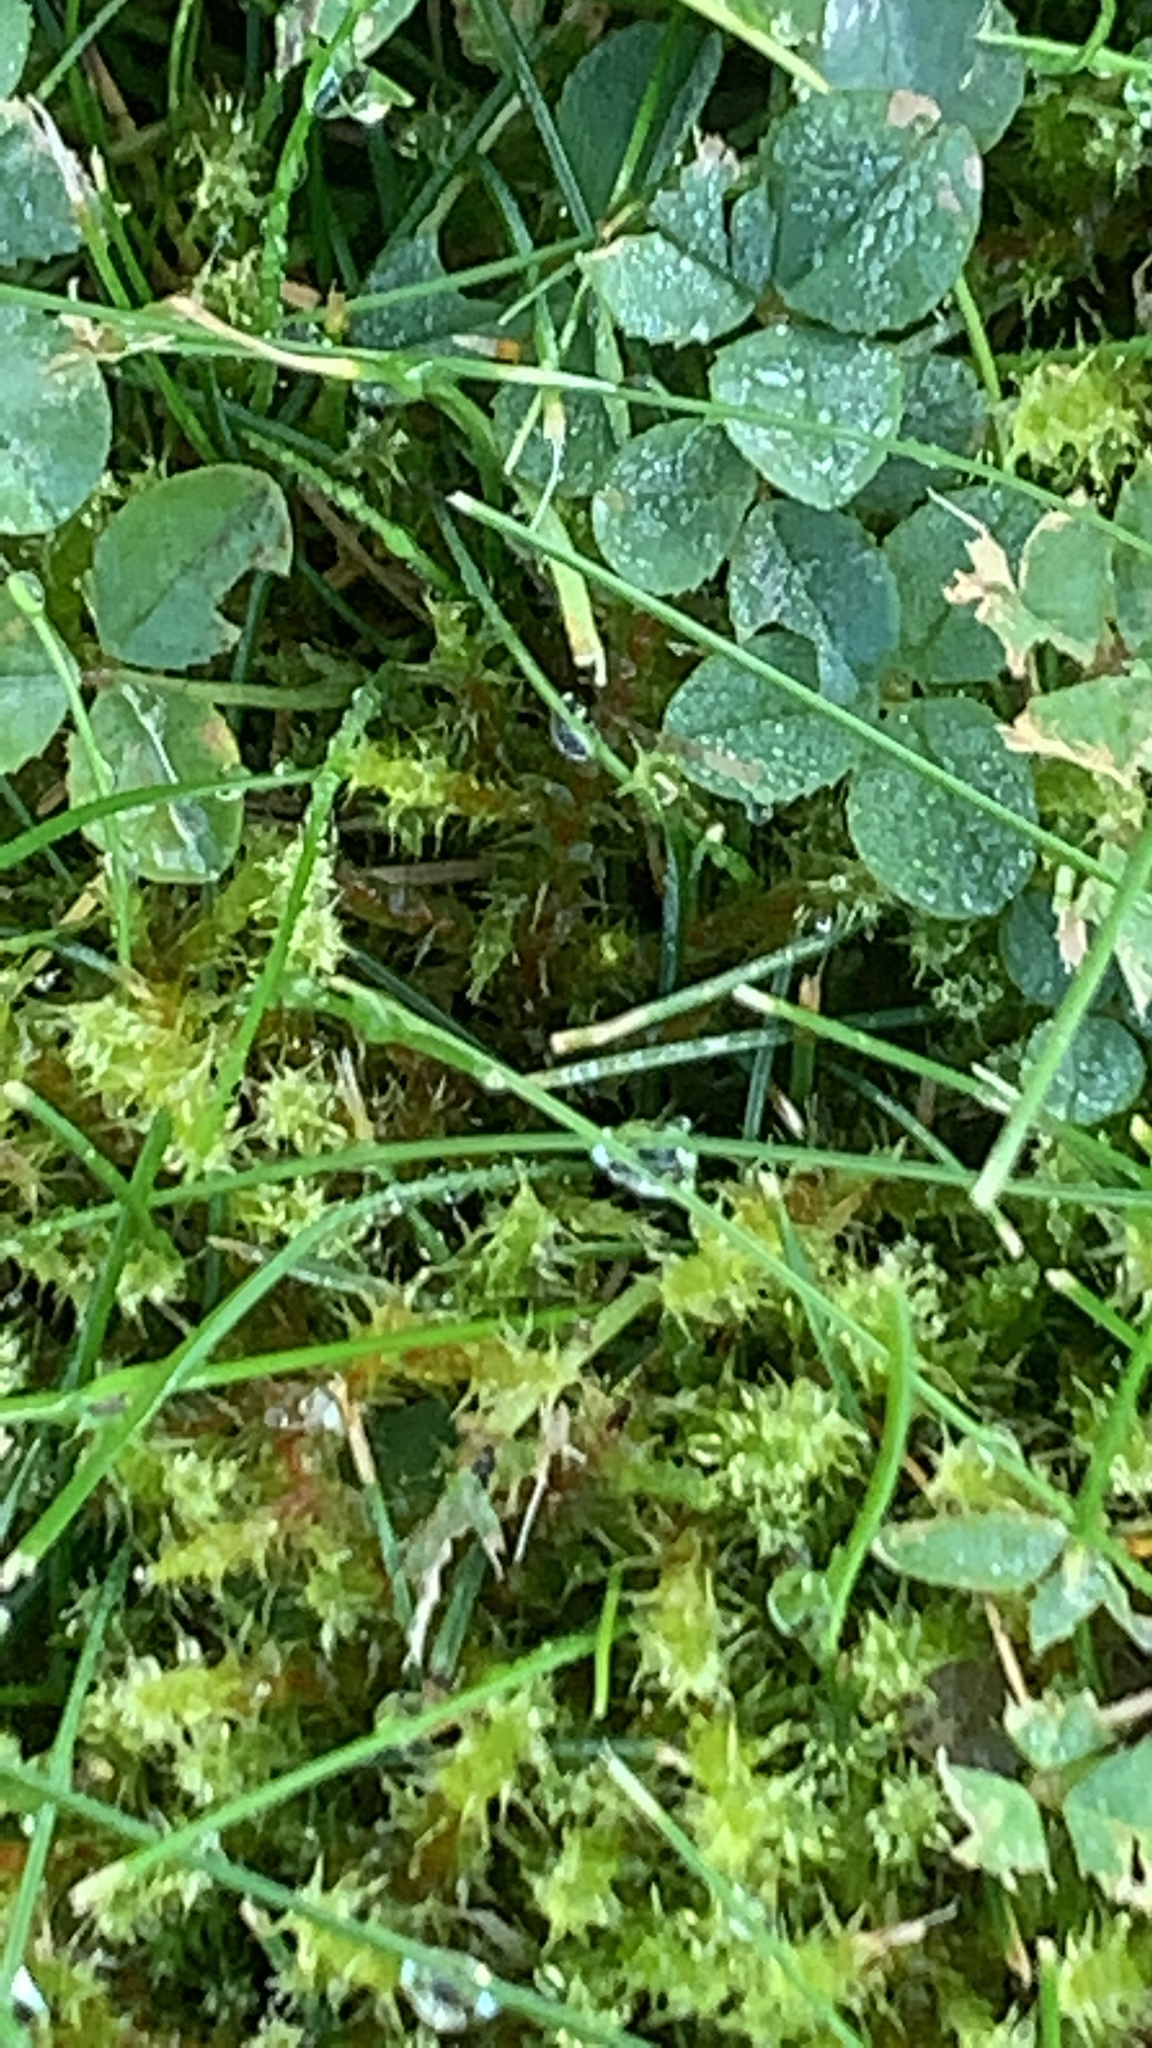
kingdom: Plantae
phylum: Bryophyta
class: Bryopsida
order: Hypnales
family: Hylocomiaceae
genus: Rhytidiadelphus
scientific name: Rhytidiadelphus squarrosus
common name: Springy turf-moss
